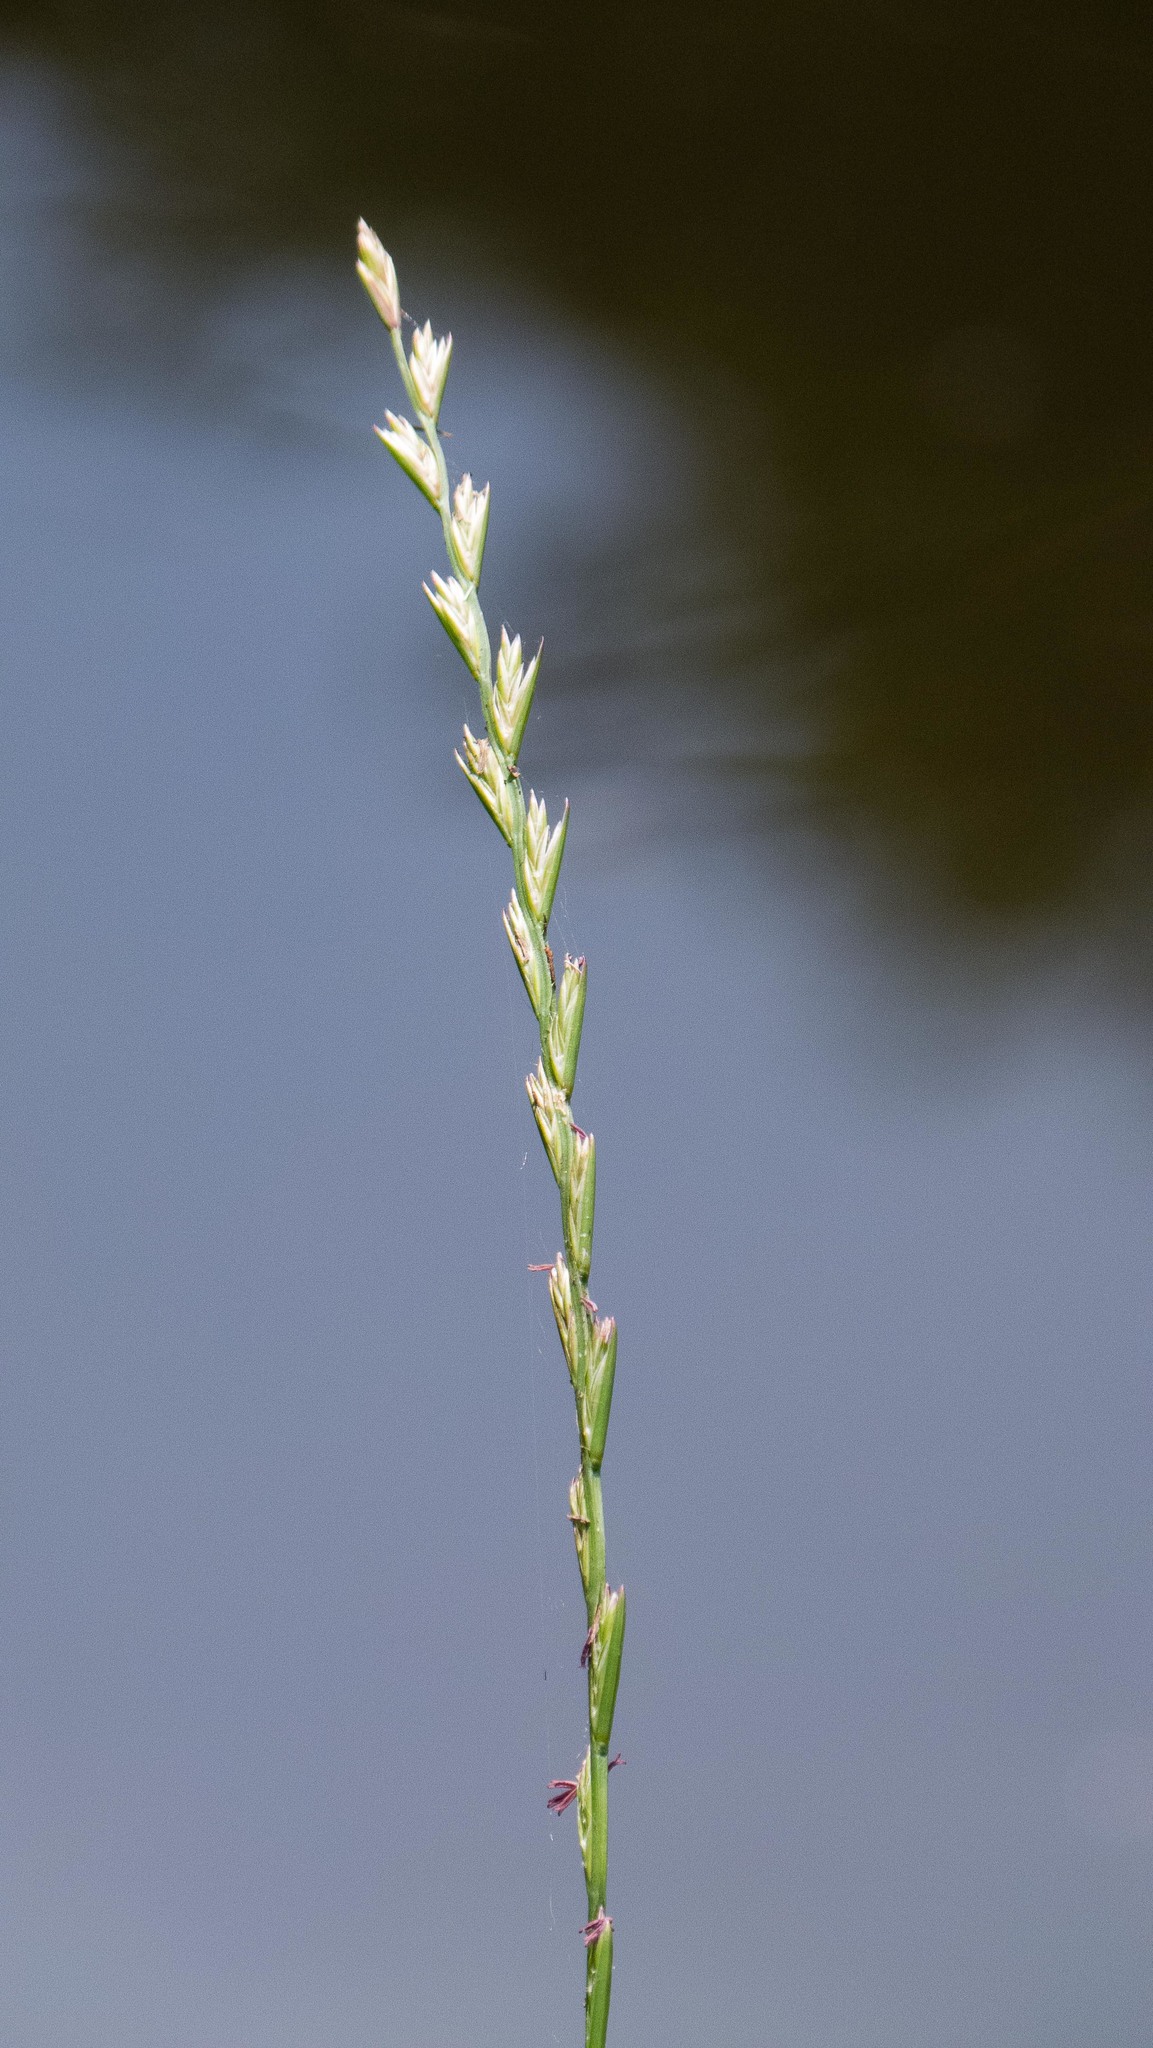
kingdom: Plantae
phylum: Tracheophyta
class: Liliopsida
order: Poales
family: Poaceae
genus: Lolium
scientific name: Lolium perenne
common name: Perennial ryegrass
